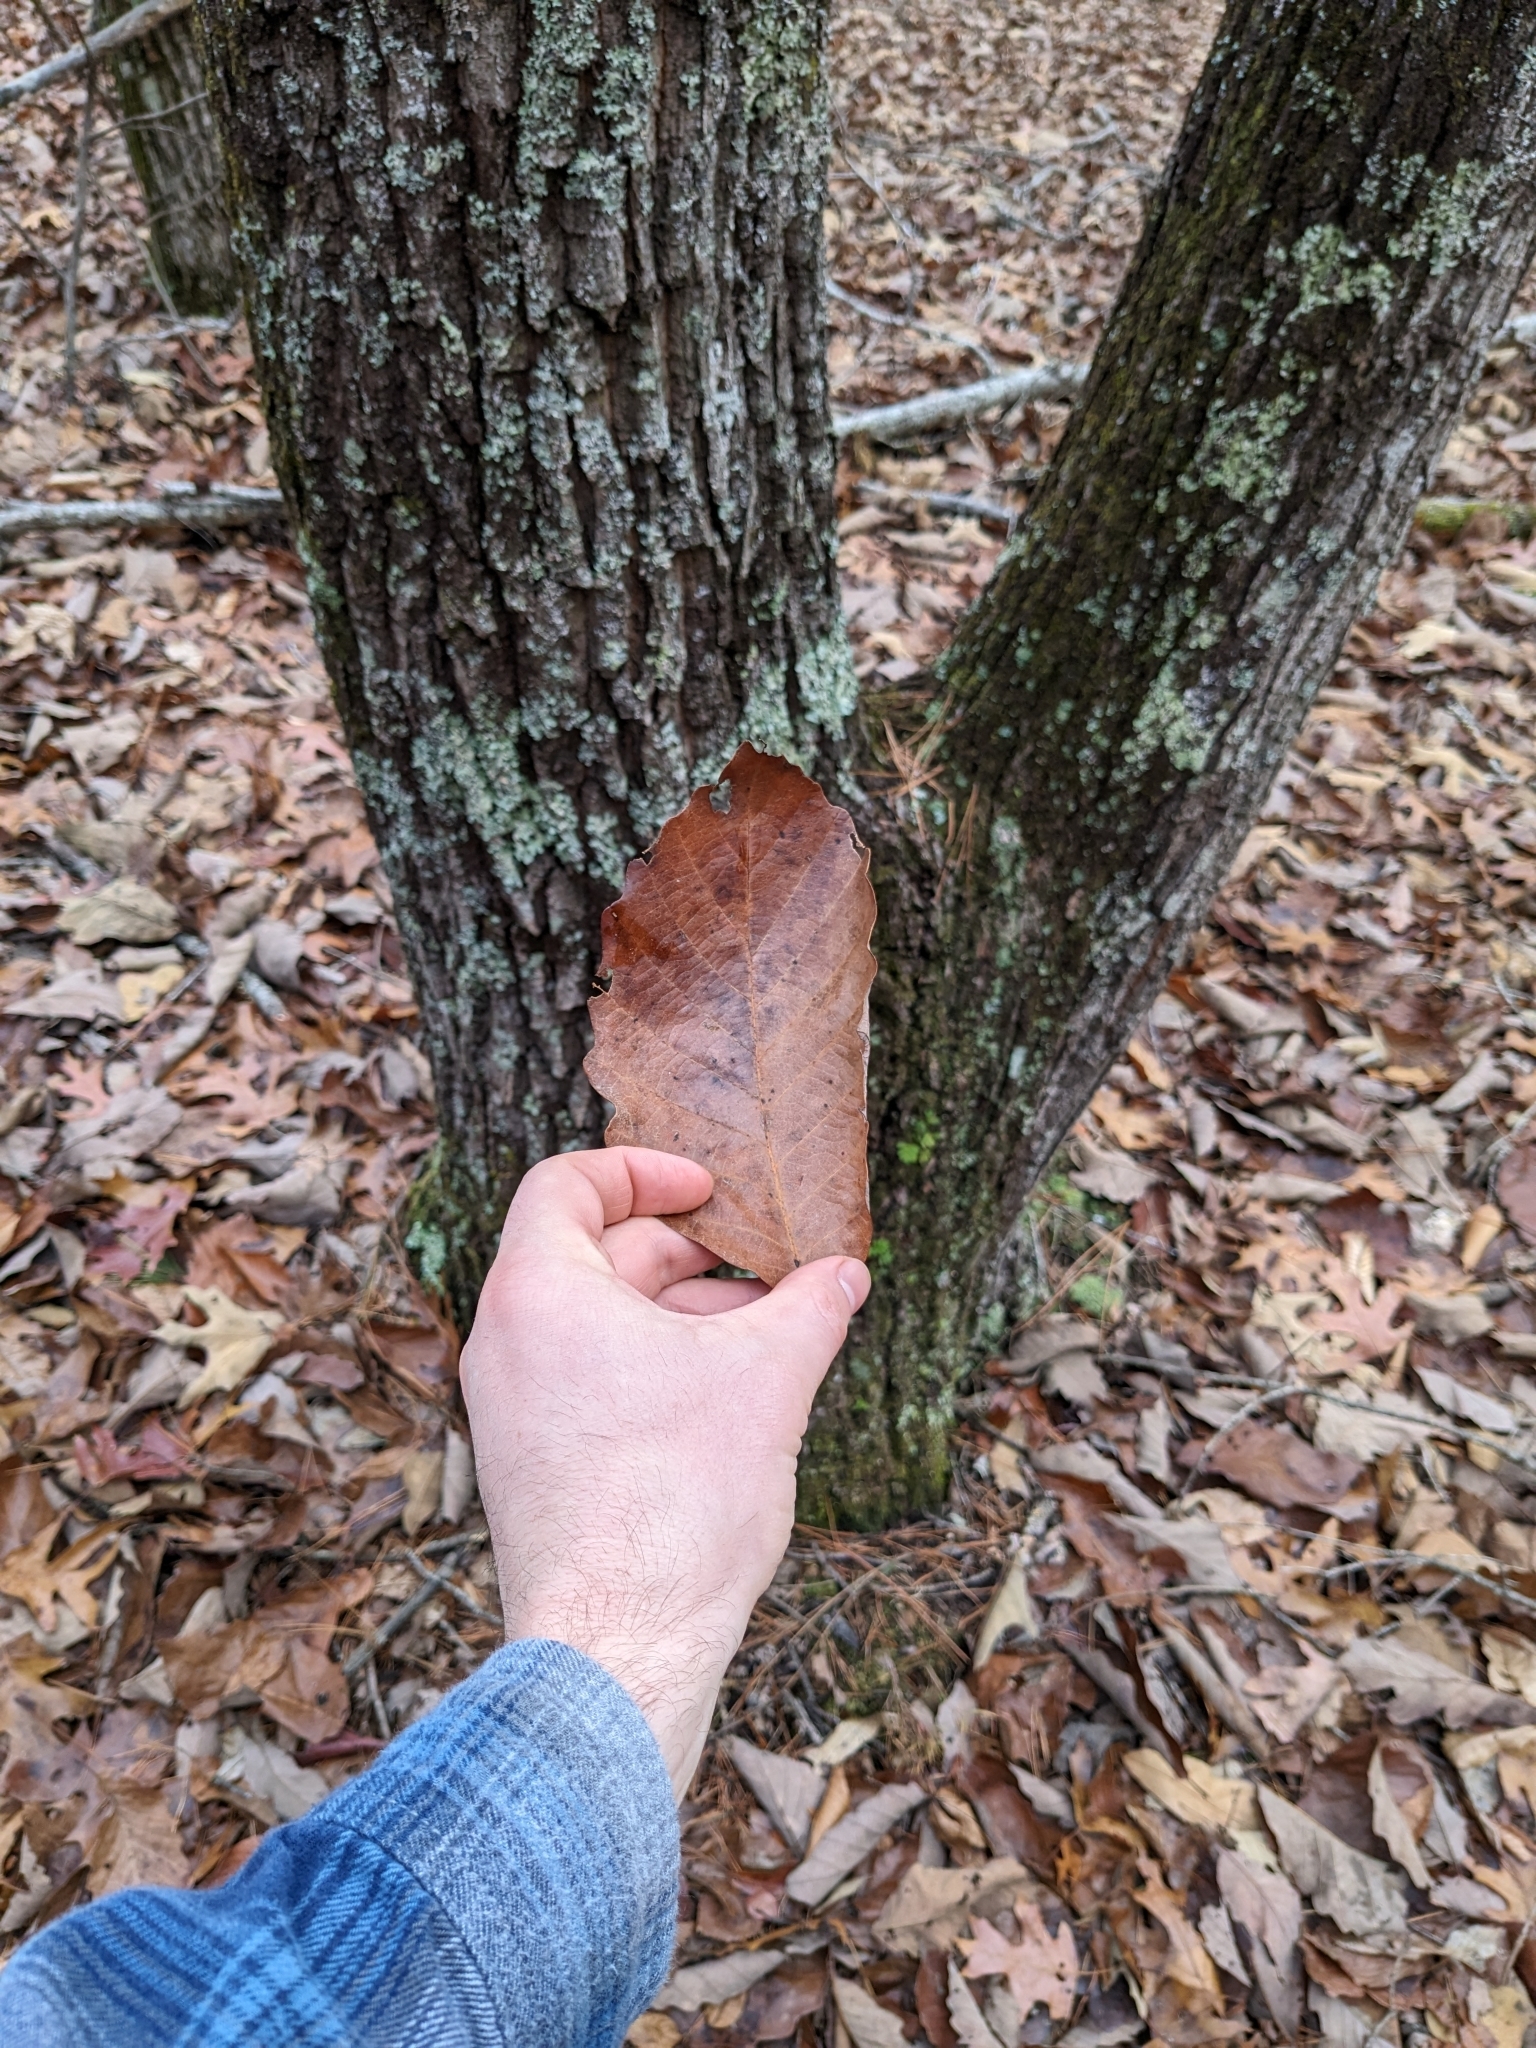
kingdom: Plantae
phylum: Tracheophyta
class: Magnoliopsida
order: Fagales
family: Fagaceae
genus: Quercus
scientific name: Quercus montana
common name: Chestnut oak
